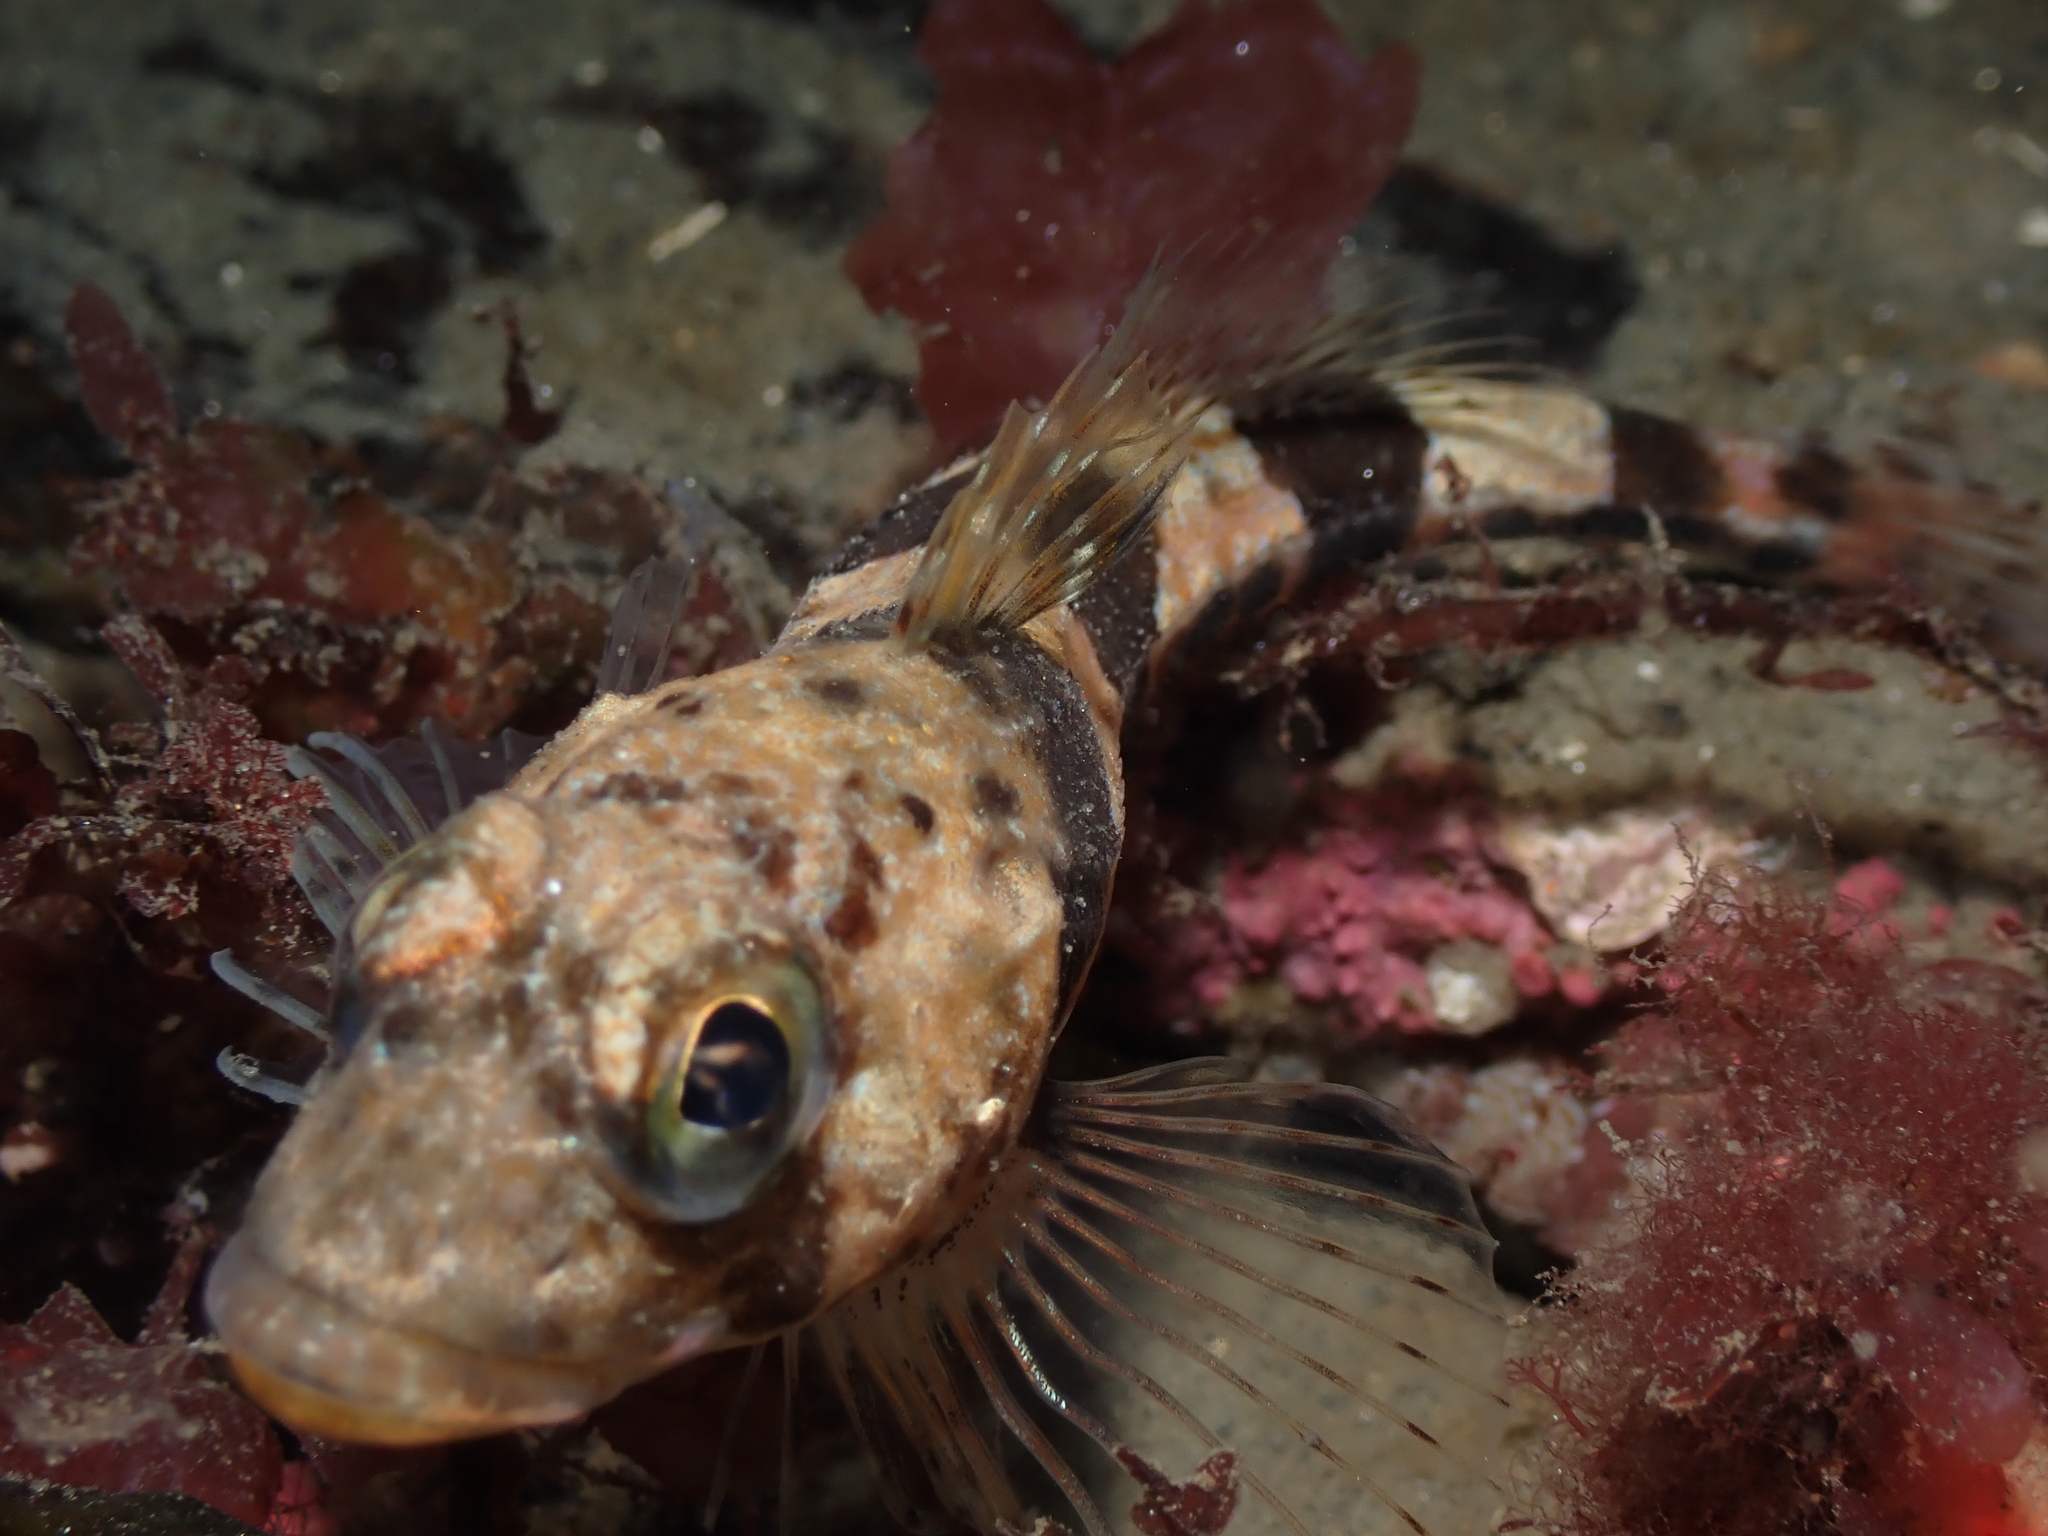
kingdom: Animalia
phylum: Chordata
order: Scorpaeniformes
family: Cottidae
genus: Triglops
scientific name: Triglops murrayi
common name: Moustache sculpin
